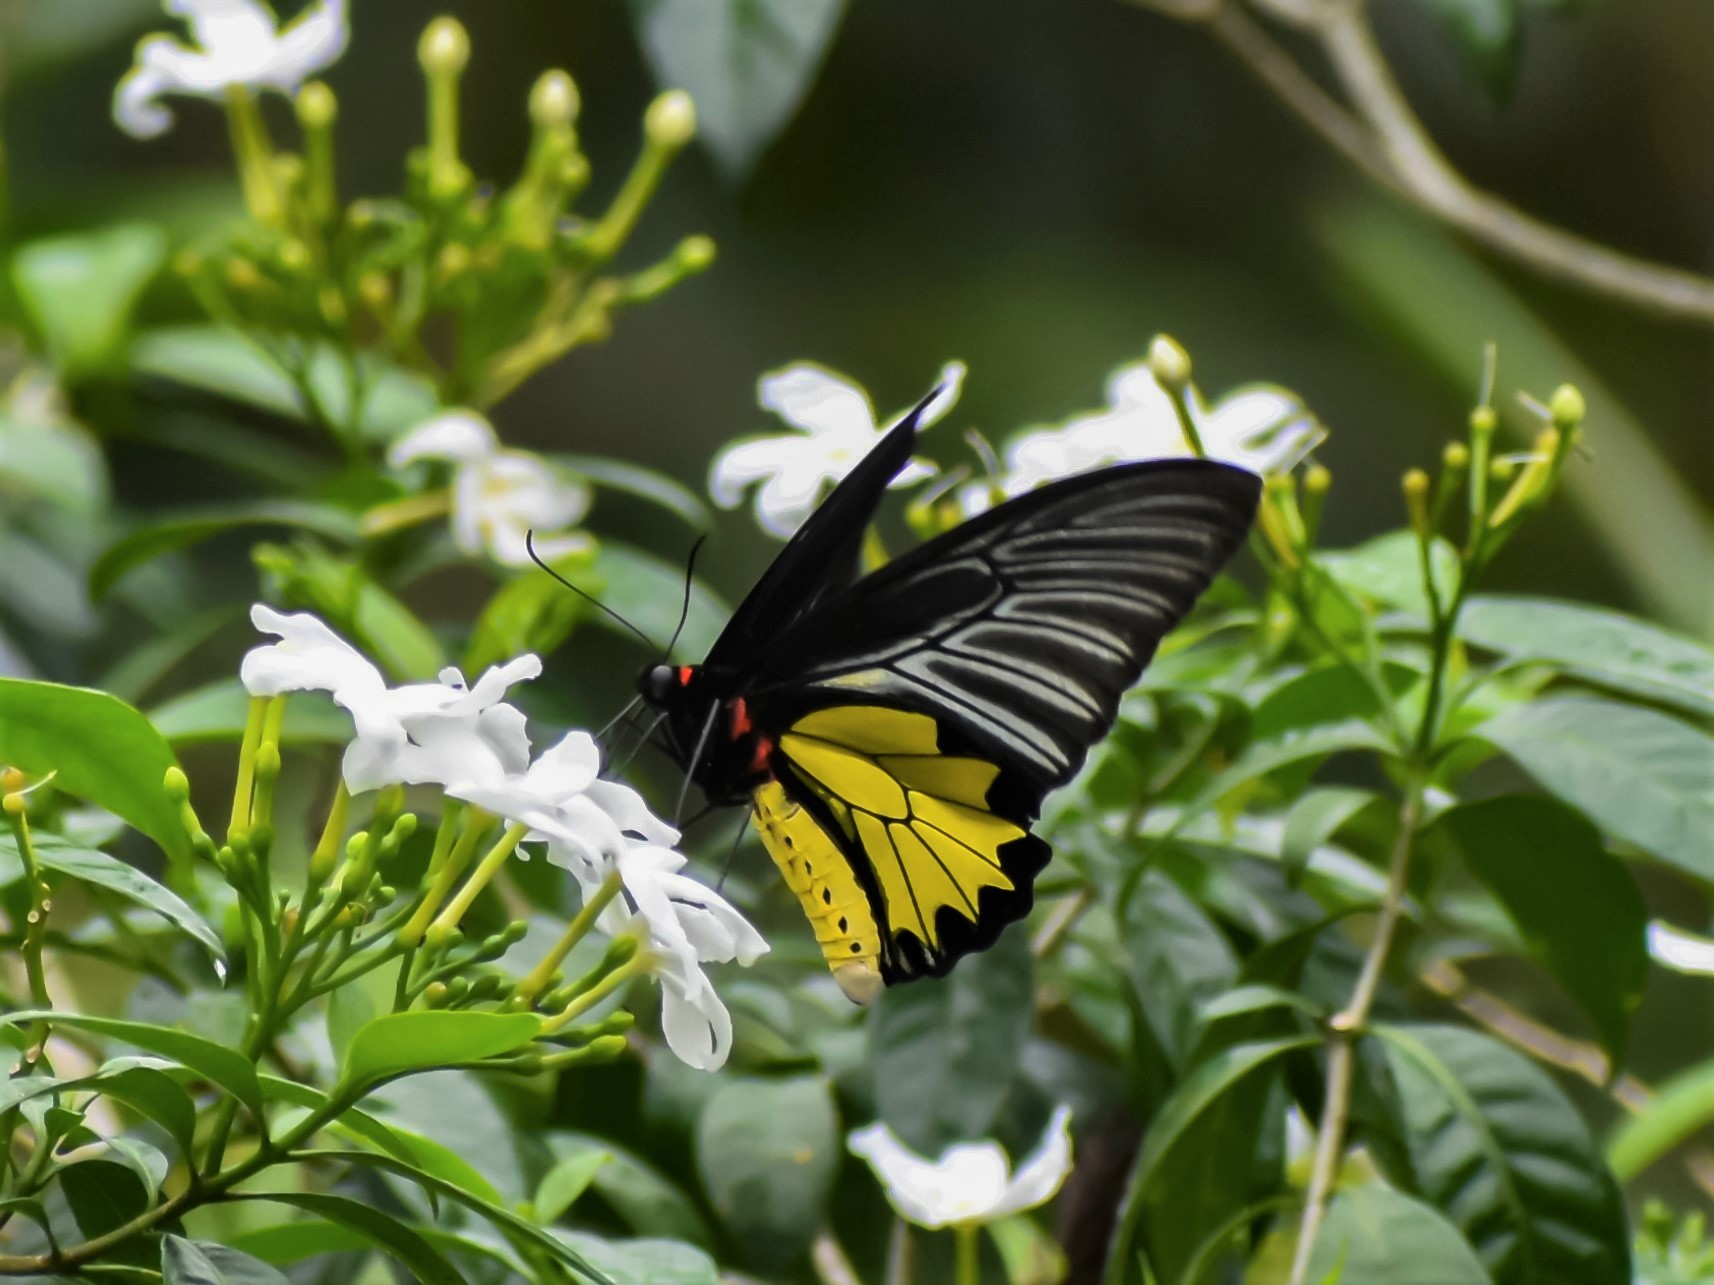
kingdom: Animalia
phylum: Arthropoda
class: Insecta
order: Lepidoptera
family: Papilionidae
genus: Troides
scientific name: Troides minos
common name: Malabar birdwing
